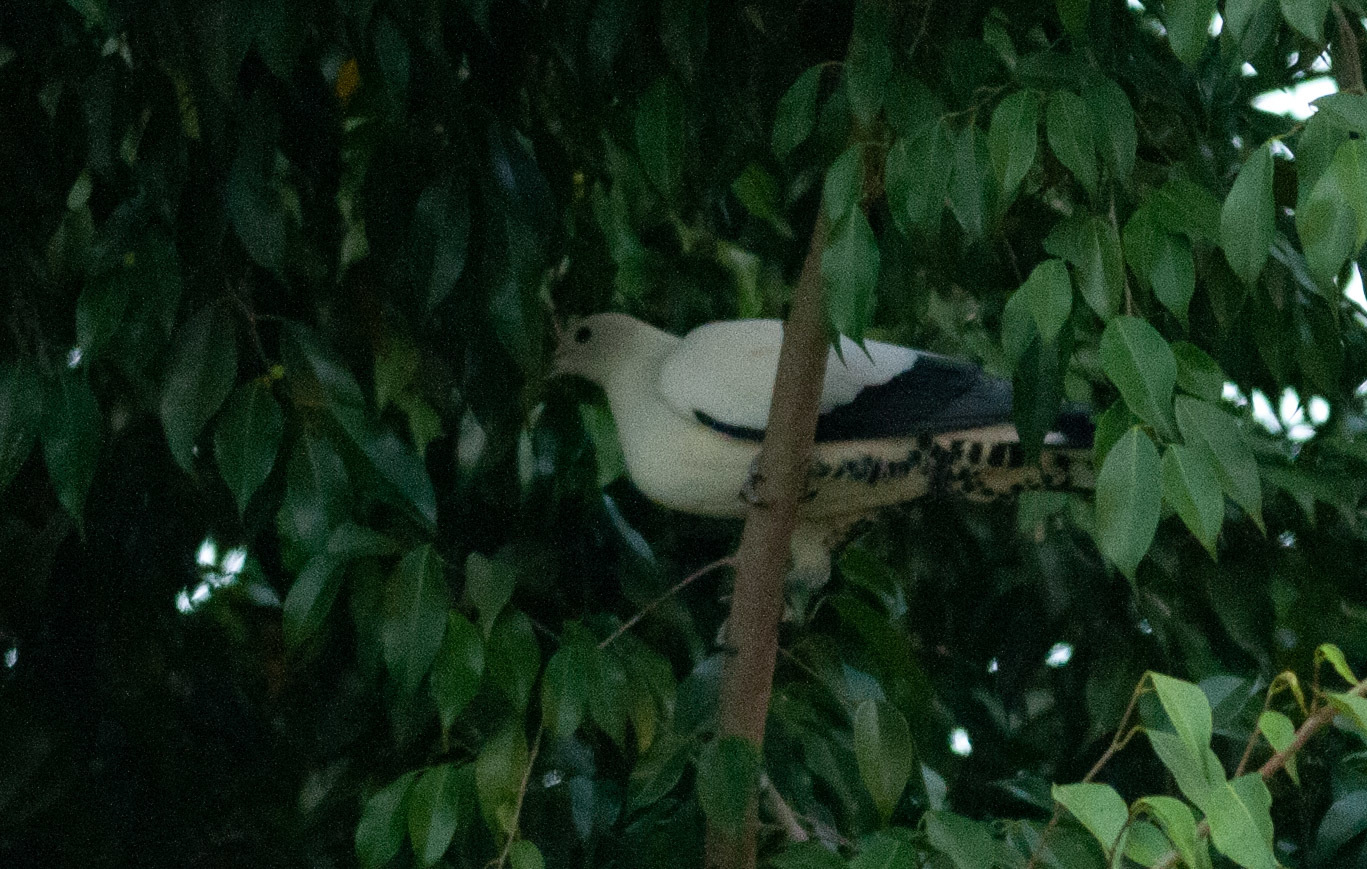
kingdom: Animalia
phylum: Chordata
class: Aves
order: Columbiformes
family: Columbidae
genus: Ducula
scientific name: Ducula spilorrhoa
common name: Torresian imperial pigeon
